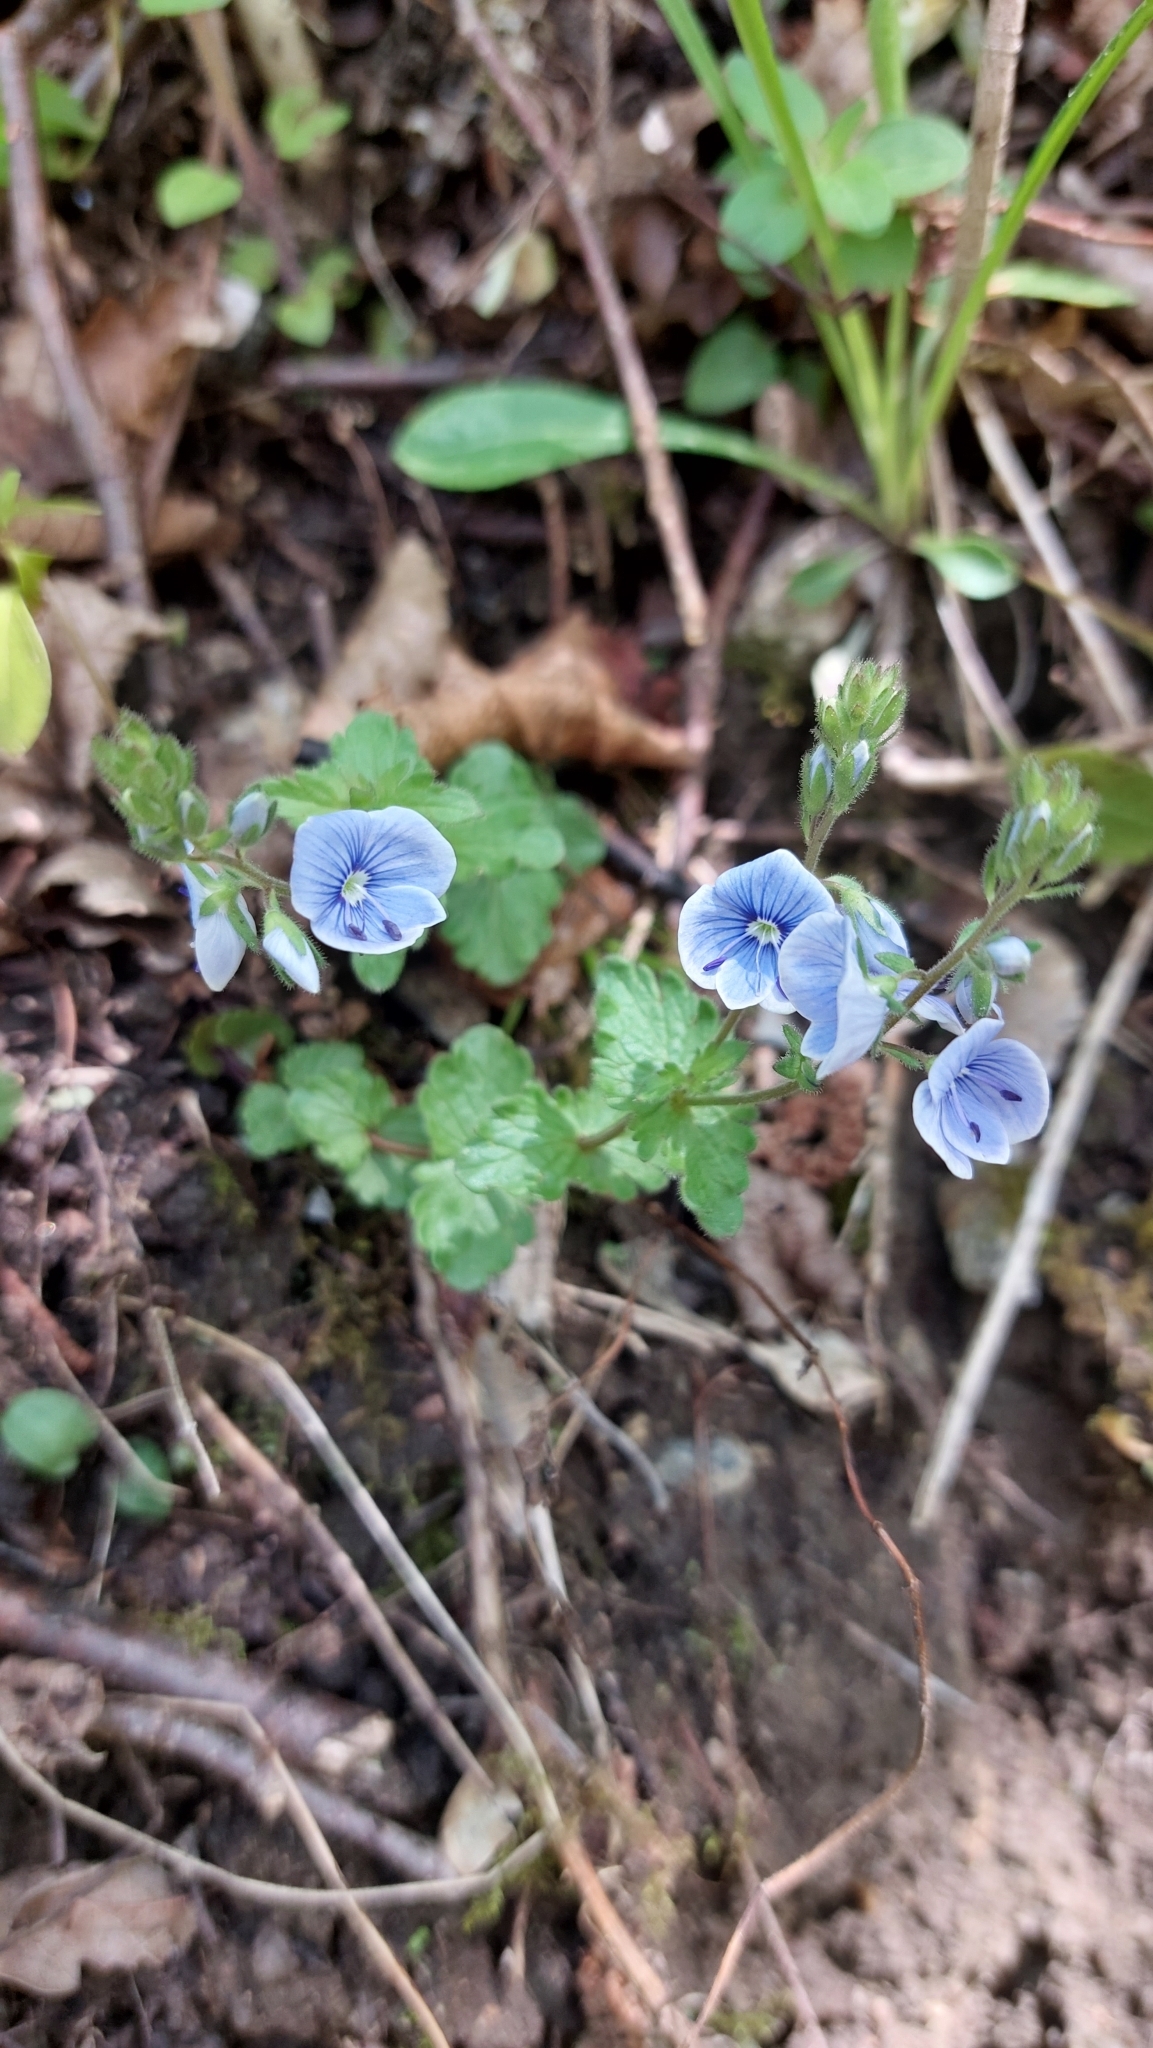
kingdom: Plantae
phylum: Tracheophyta
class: Magnoliopsida
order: Lamiales
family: Plantaginaceae
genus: Veronica
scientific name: Veronica chamaedrys
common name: Germander speedwell
